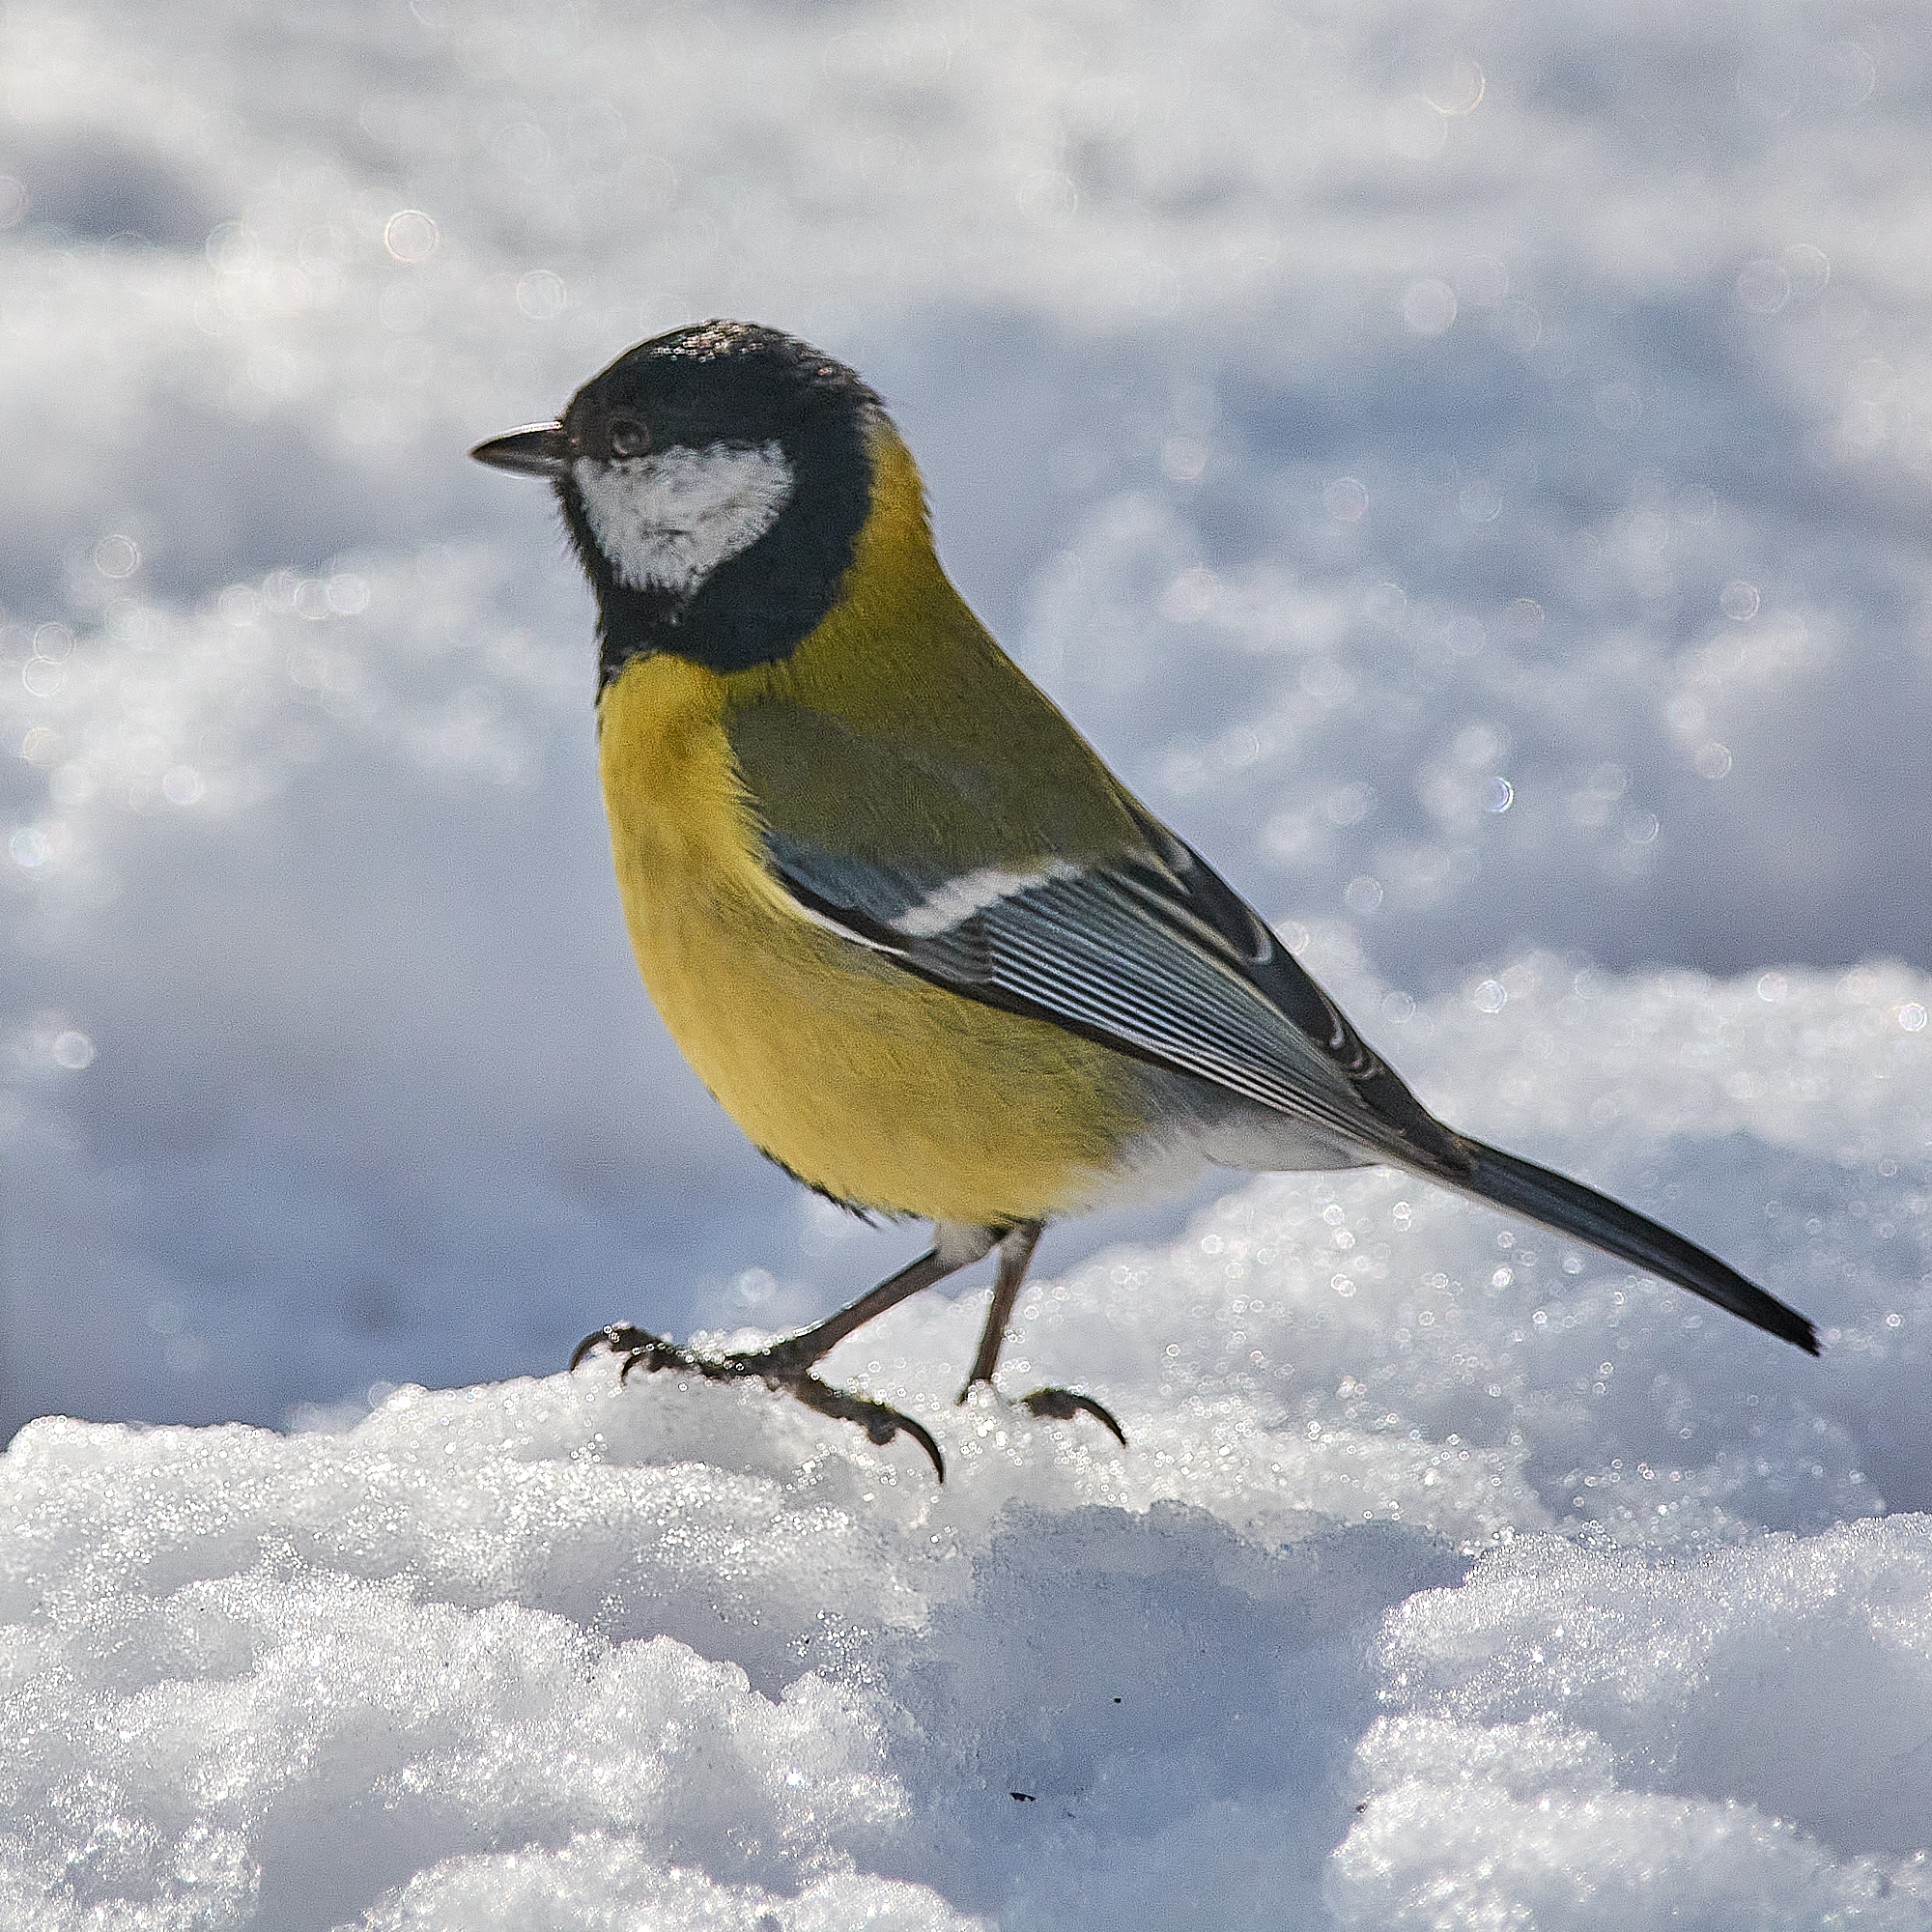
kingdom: Animalia
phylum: Chordata
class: Aves
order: Passeriformes
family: Paridae
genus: Parus
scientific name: Parus major
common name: Great tit
